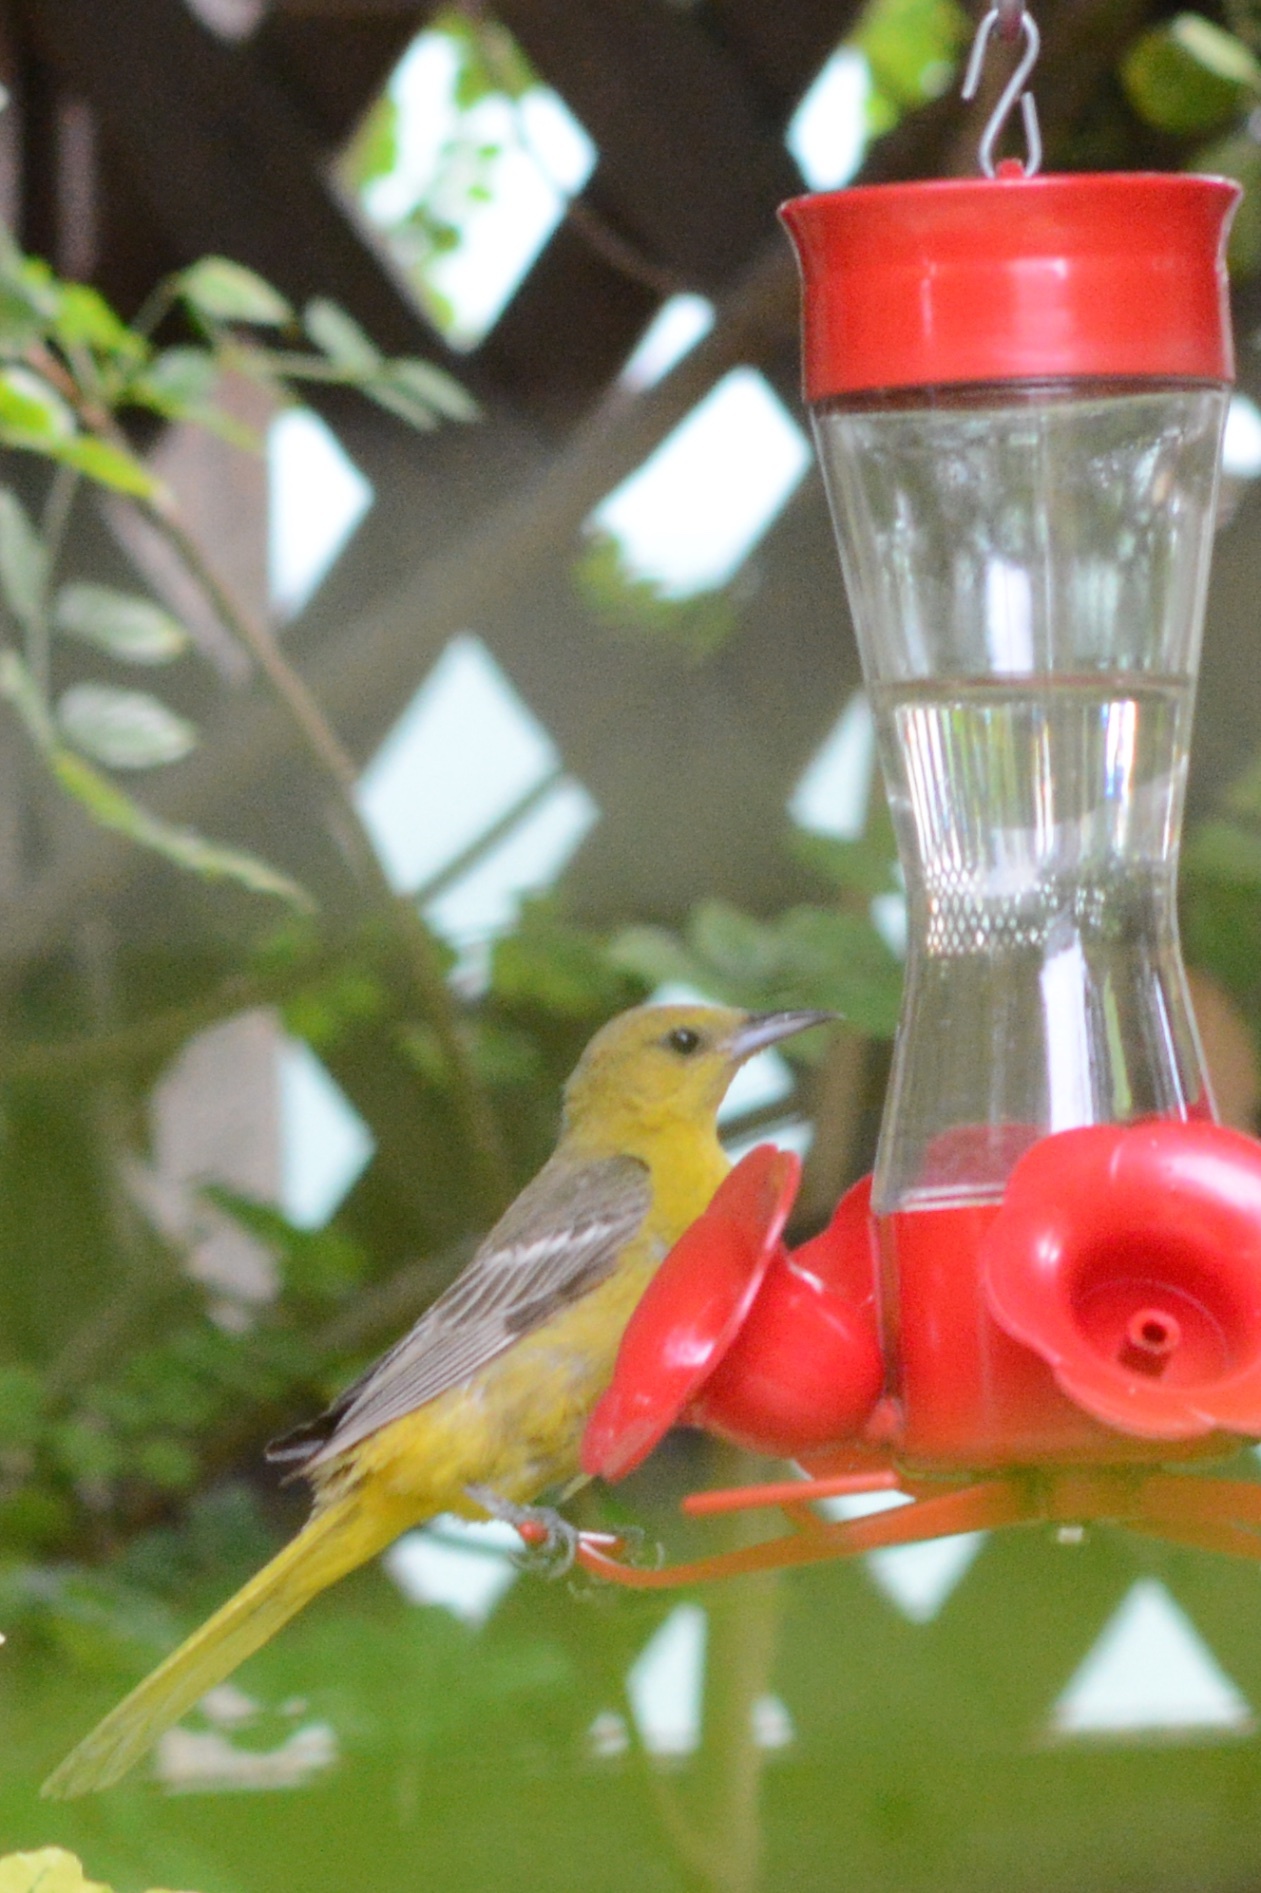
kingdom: Animalia
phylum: Chordata
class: Aves
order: Passeriformes
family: Icteridae
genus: Icterus
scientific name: Icterus cucullatus
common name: Hooded oriole
